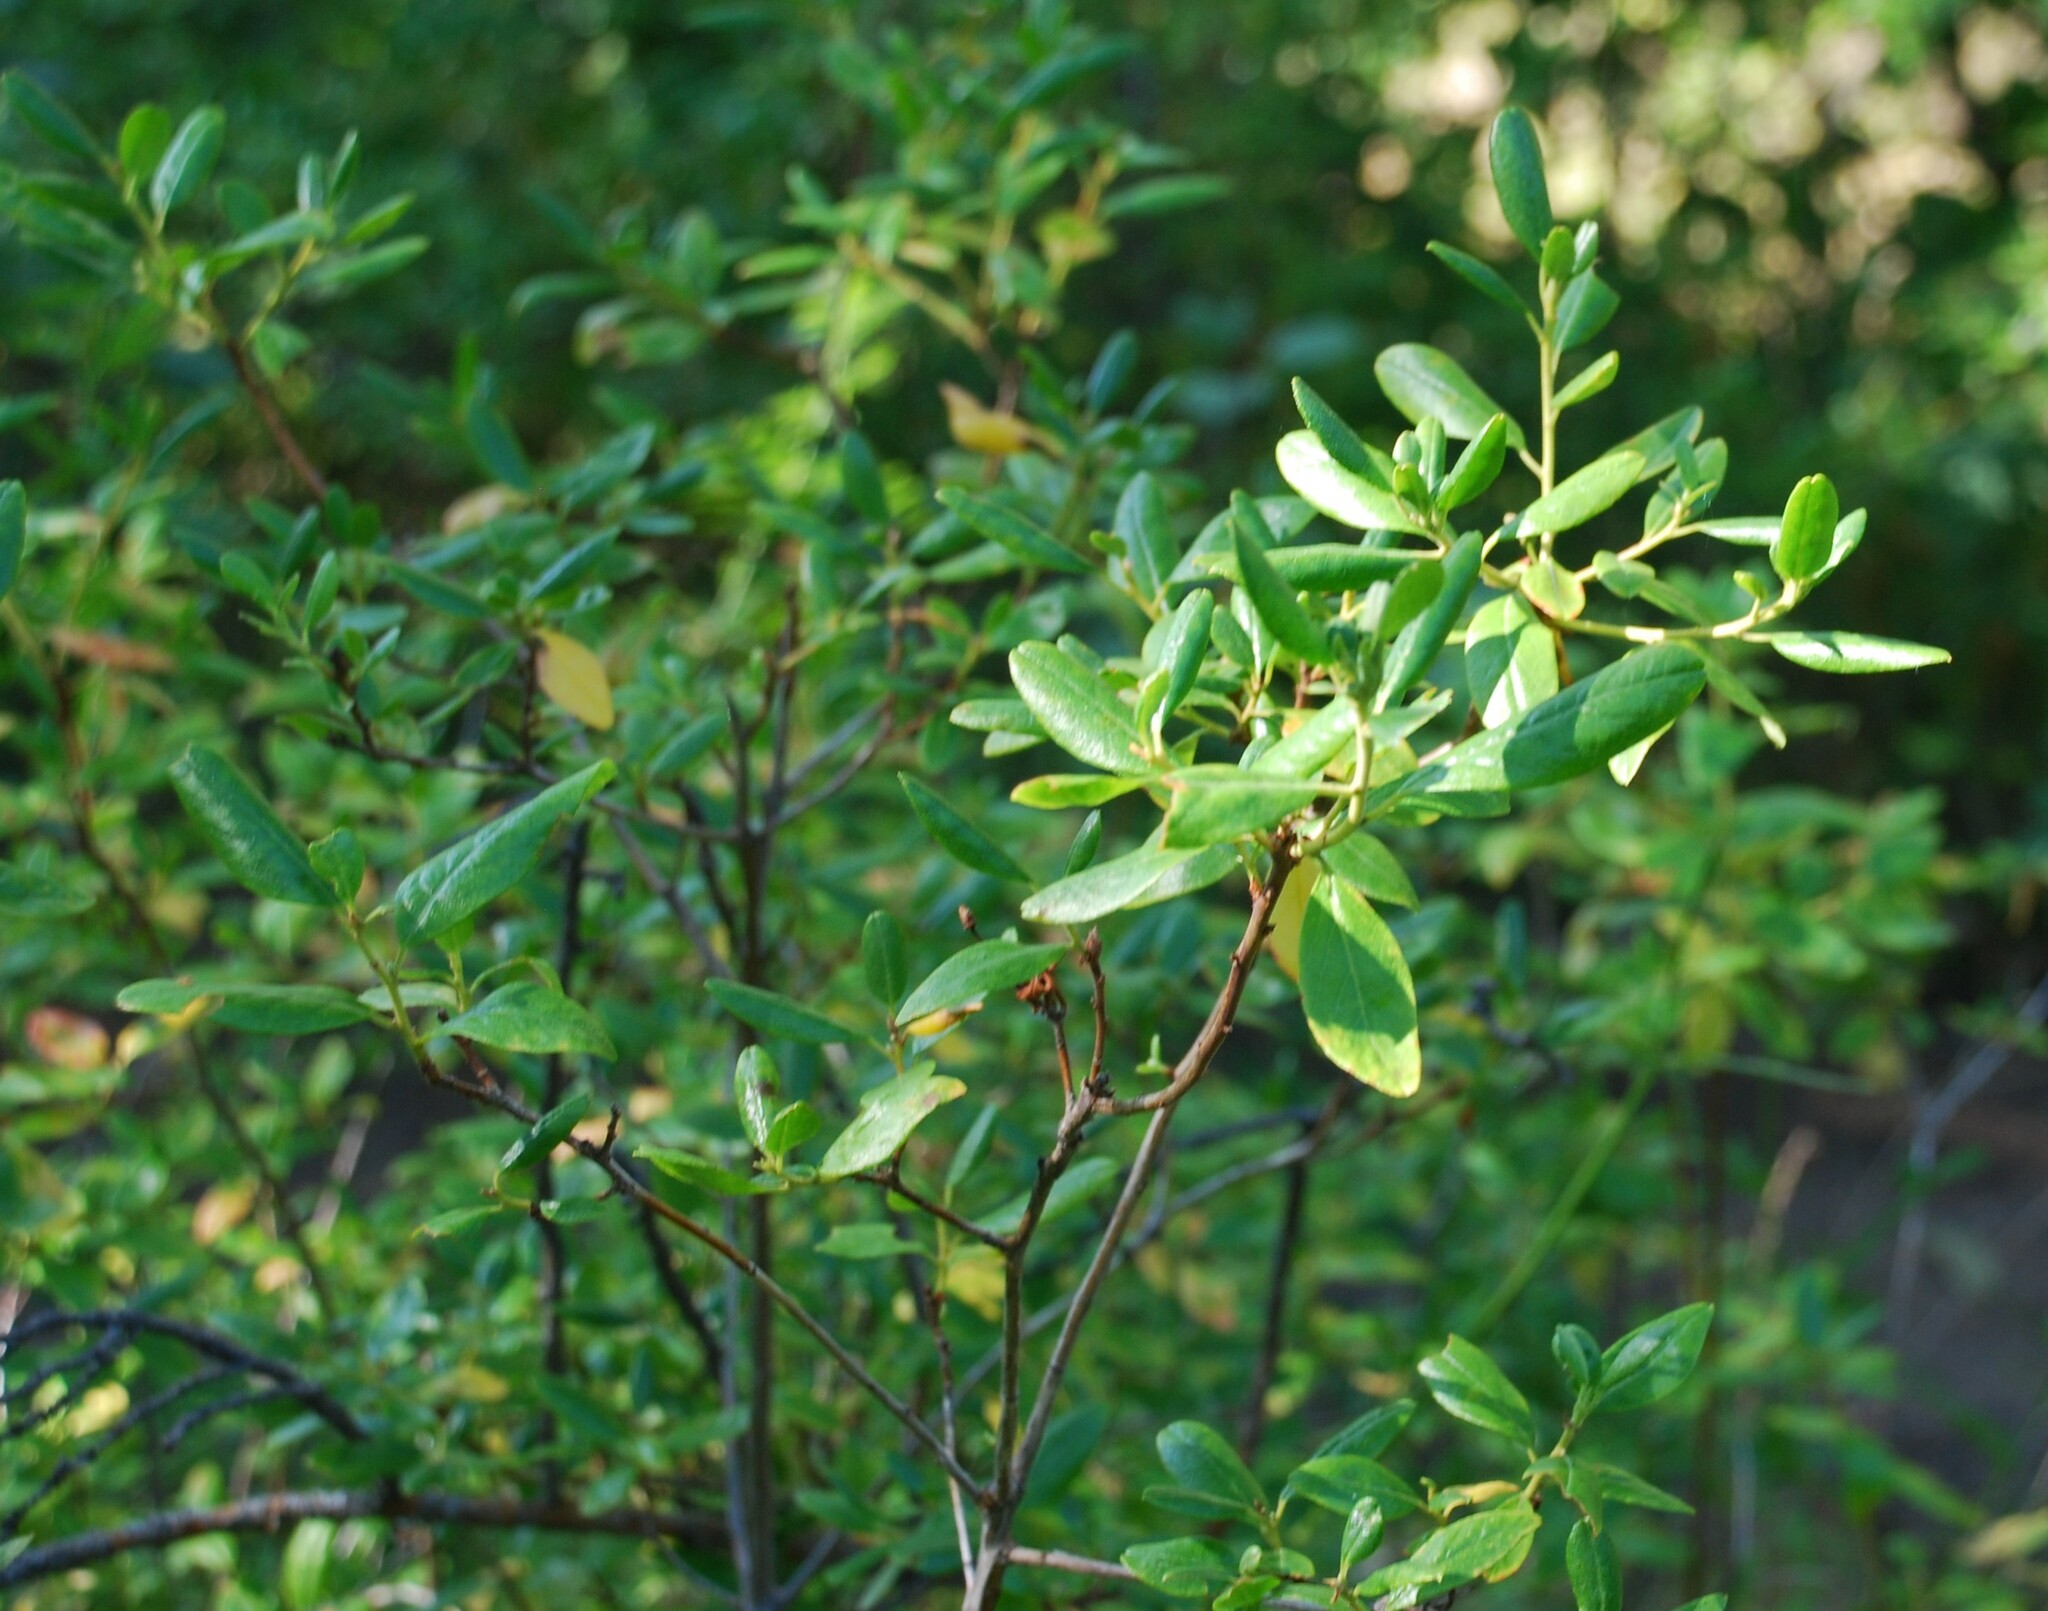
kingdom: Plantae
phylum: Tracheophyta
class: Magnoliopsida
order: Ericales
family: Ericaceae
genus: Rhododendron
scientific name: Rhododendron dauricum
